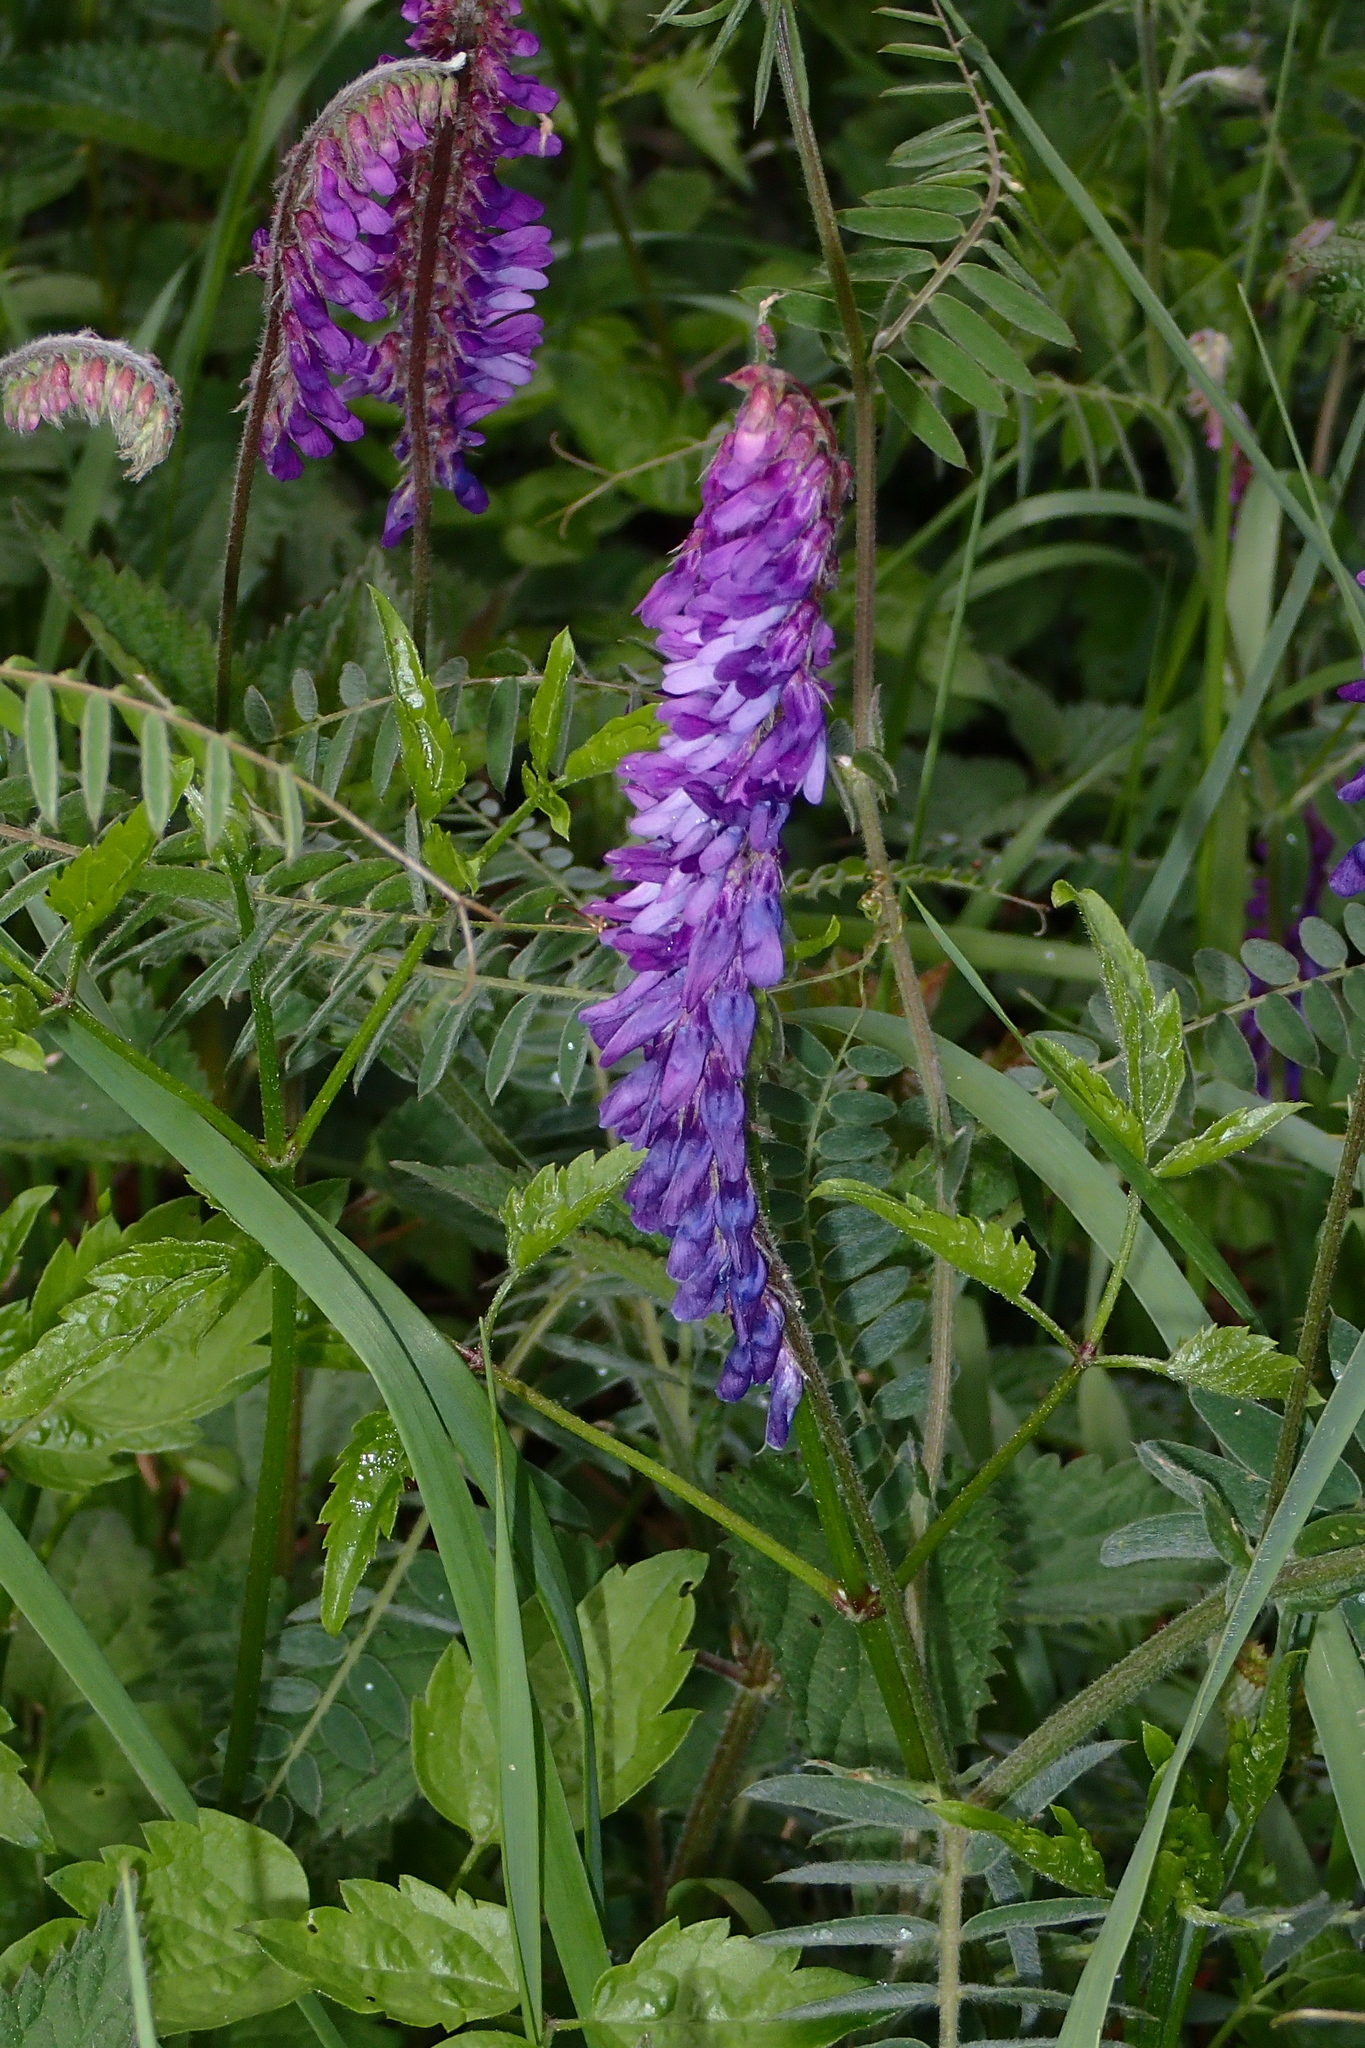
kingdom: Plantae
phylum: Tracheophyta
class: Magnoliopsida
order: Fabales
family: Fabaceae
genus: Vicia
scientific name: Vicia cracca
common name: Bird vetch
